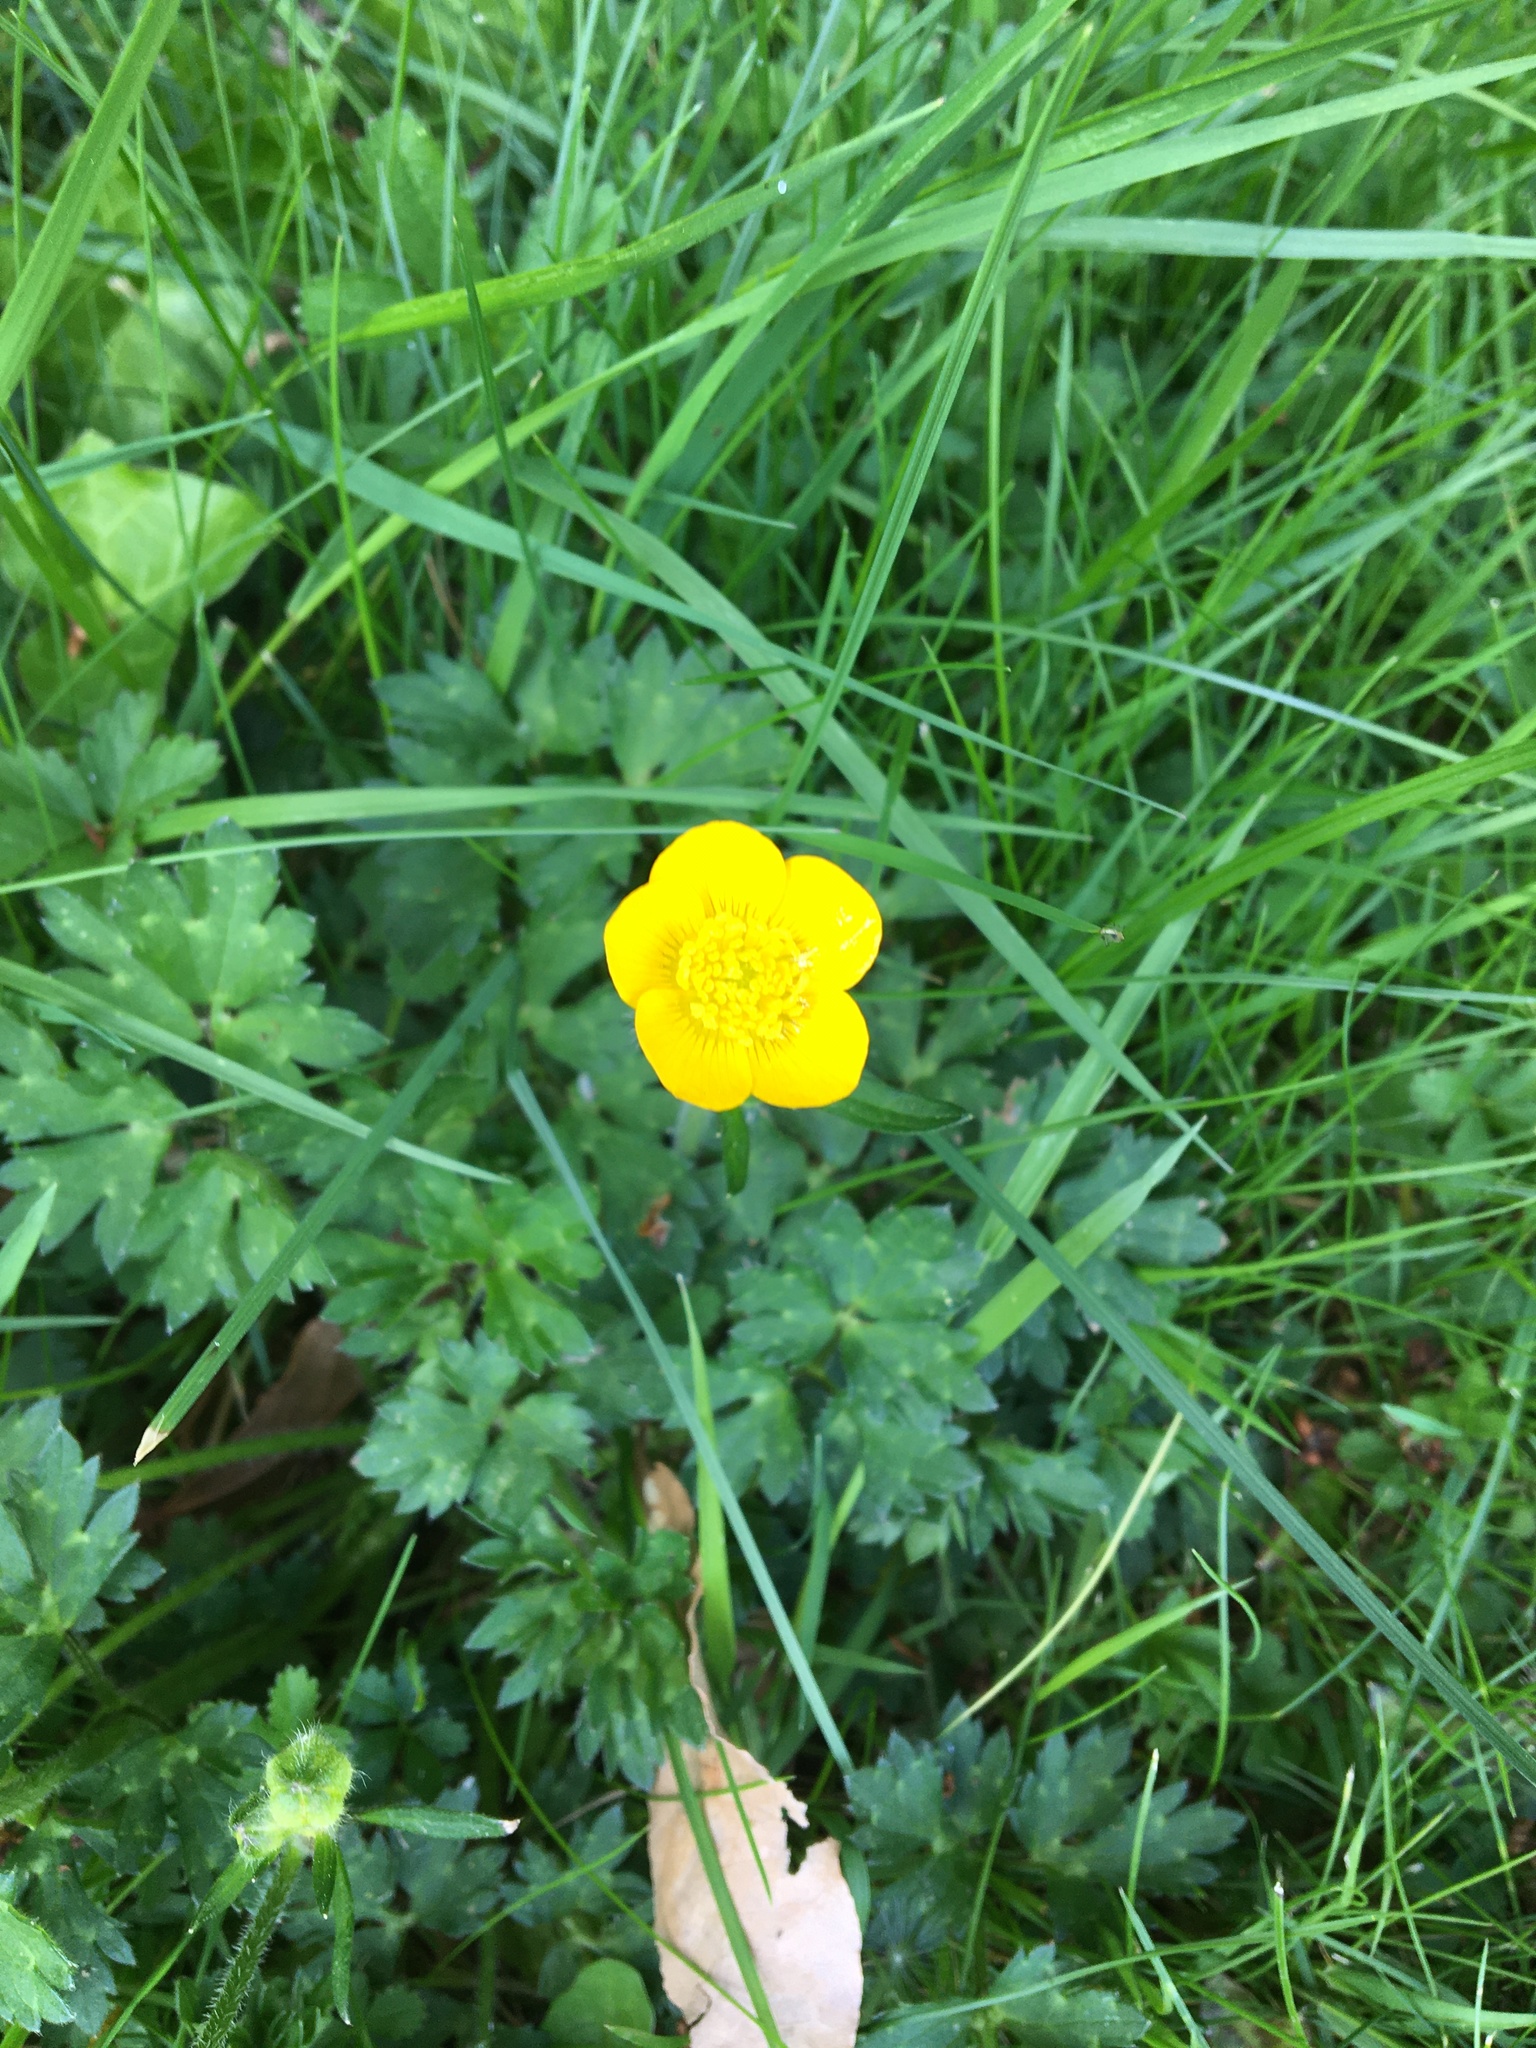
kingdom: Plantae
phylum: Tracheophyta
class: Magnoliopsida
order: Ranunculales
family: Ranunculaceae
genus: Ranunculus
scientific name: Ranunculus repens
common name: Creeping buttercup
